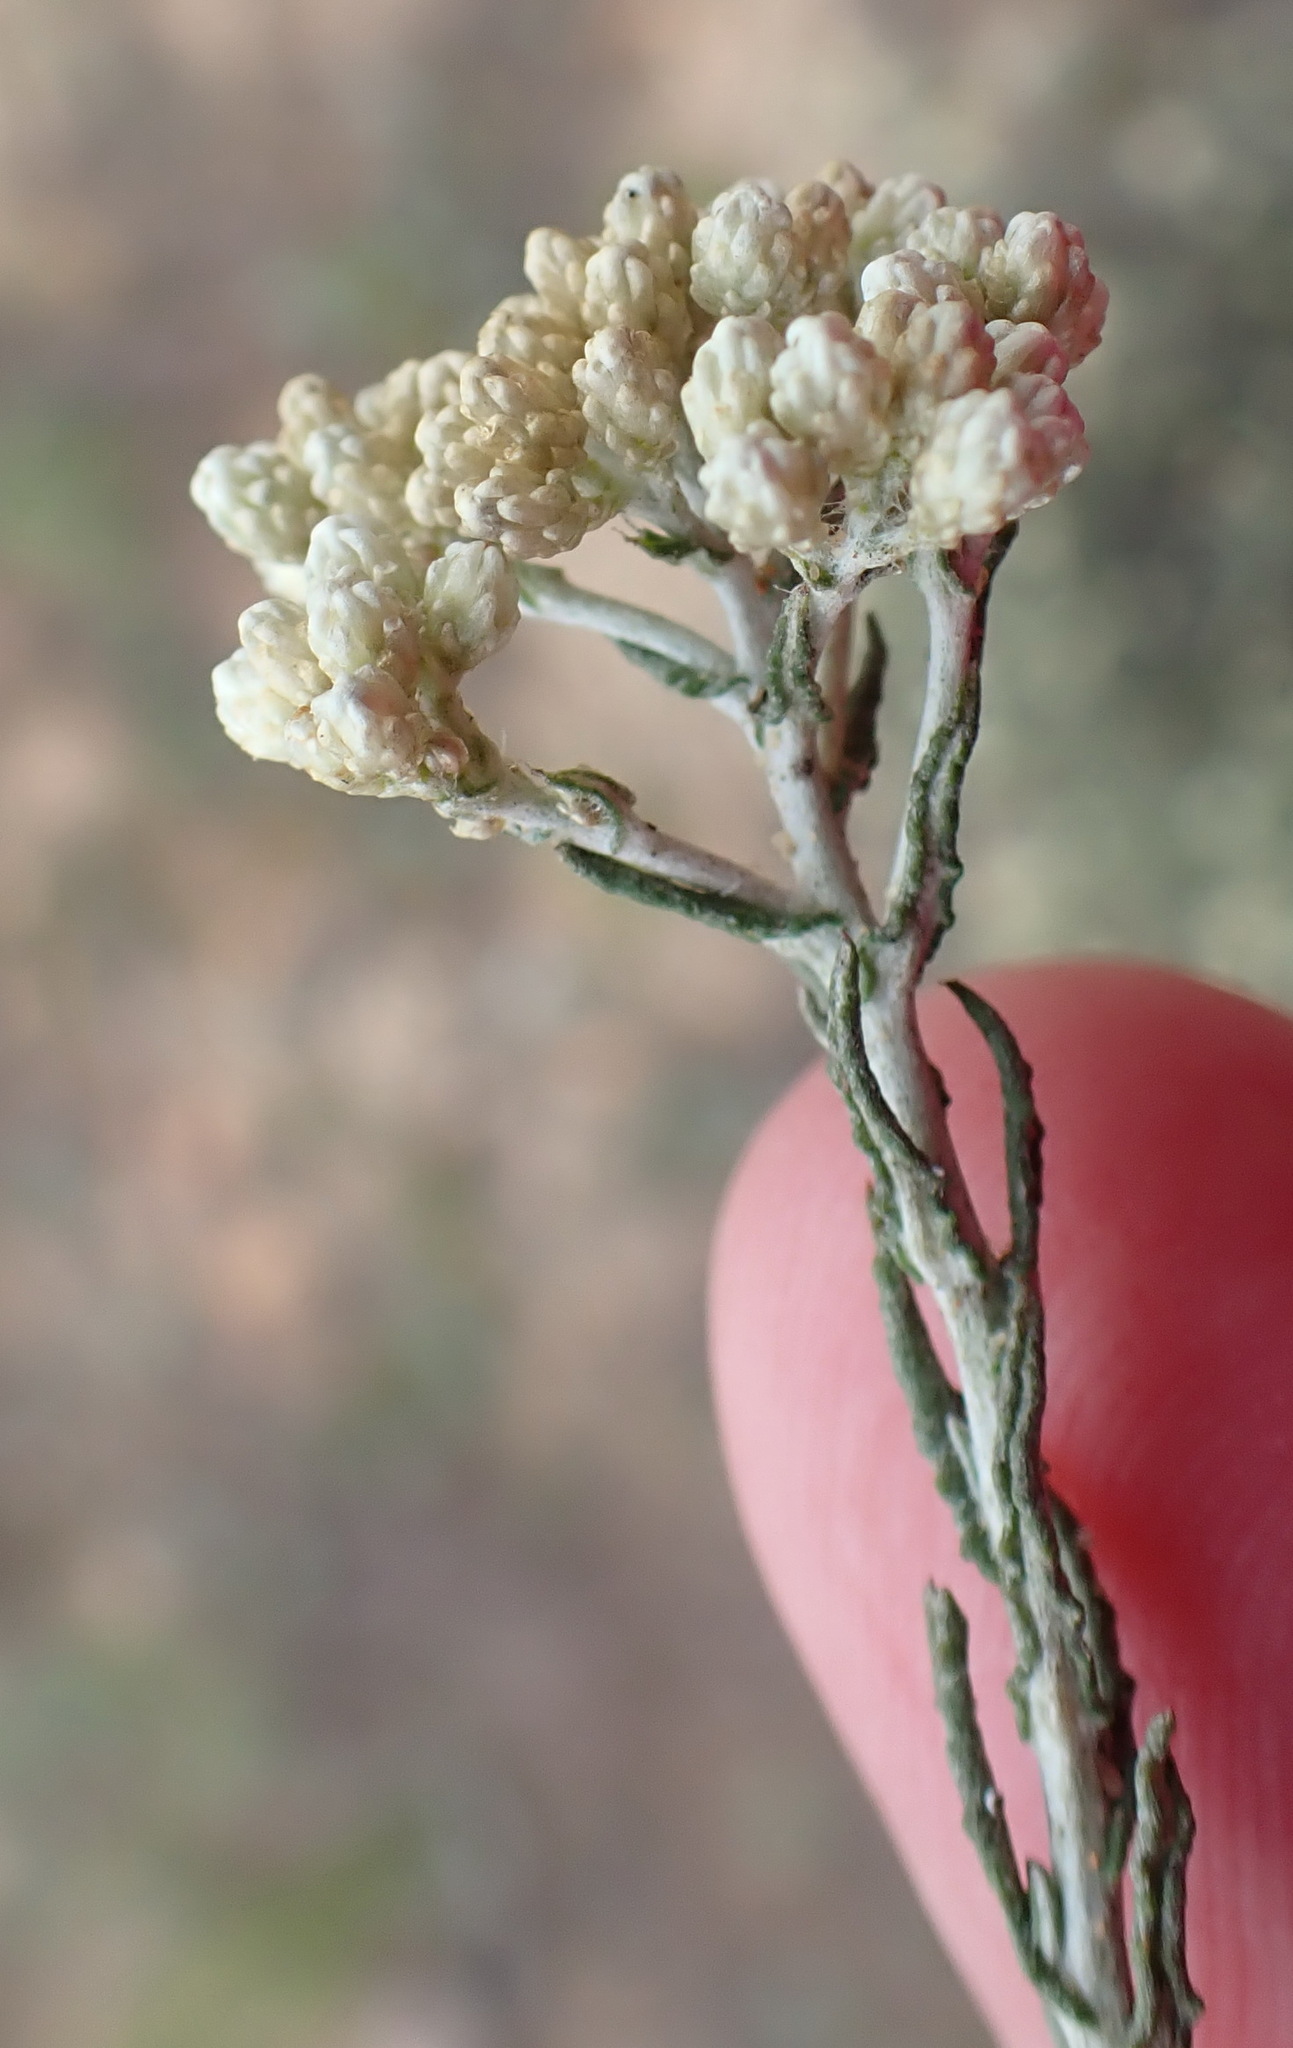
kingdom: Plantae
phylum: Tracheophyta
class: Magnoliopsida
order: Asterales
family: Asteraceae
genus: Helichrysum
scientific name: Helichrysum zeyheri
